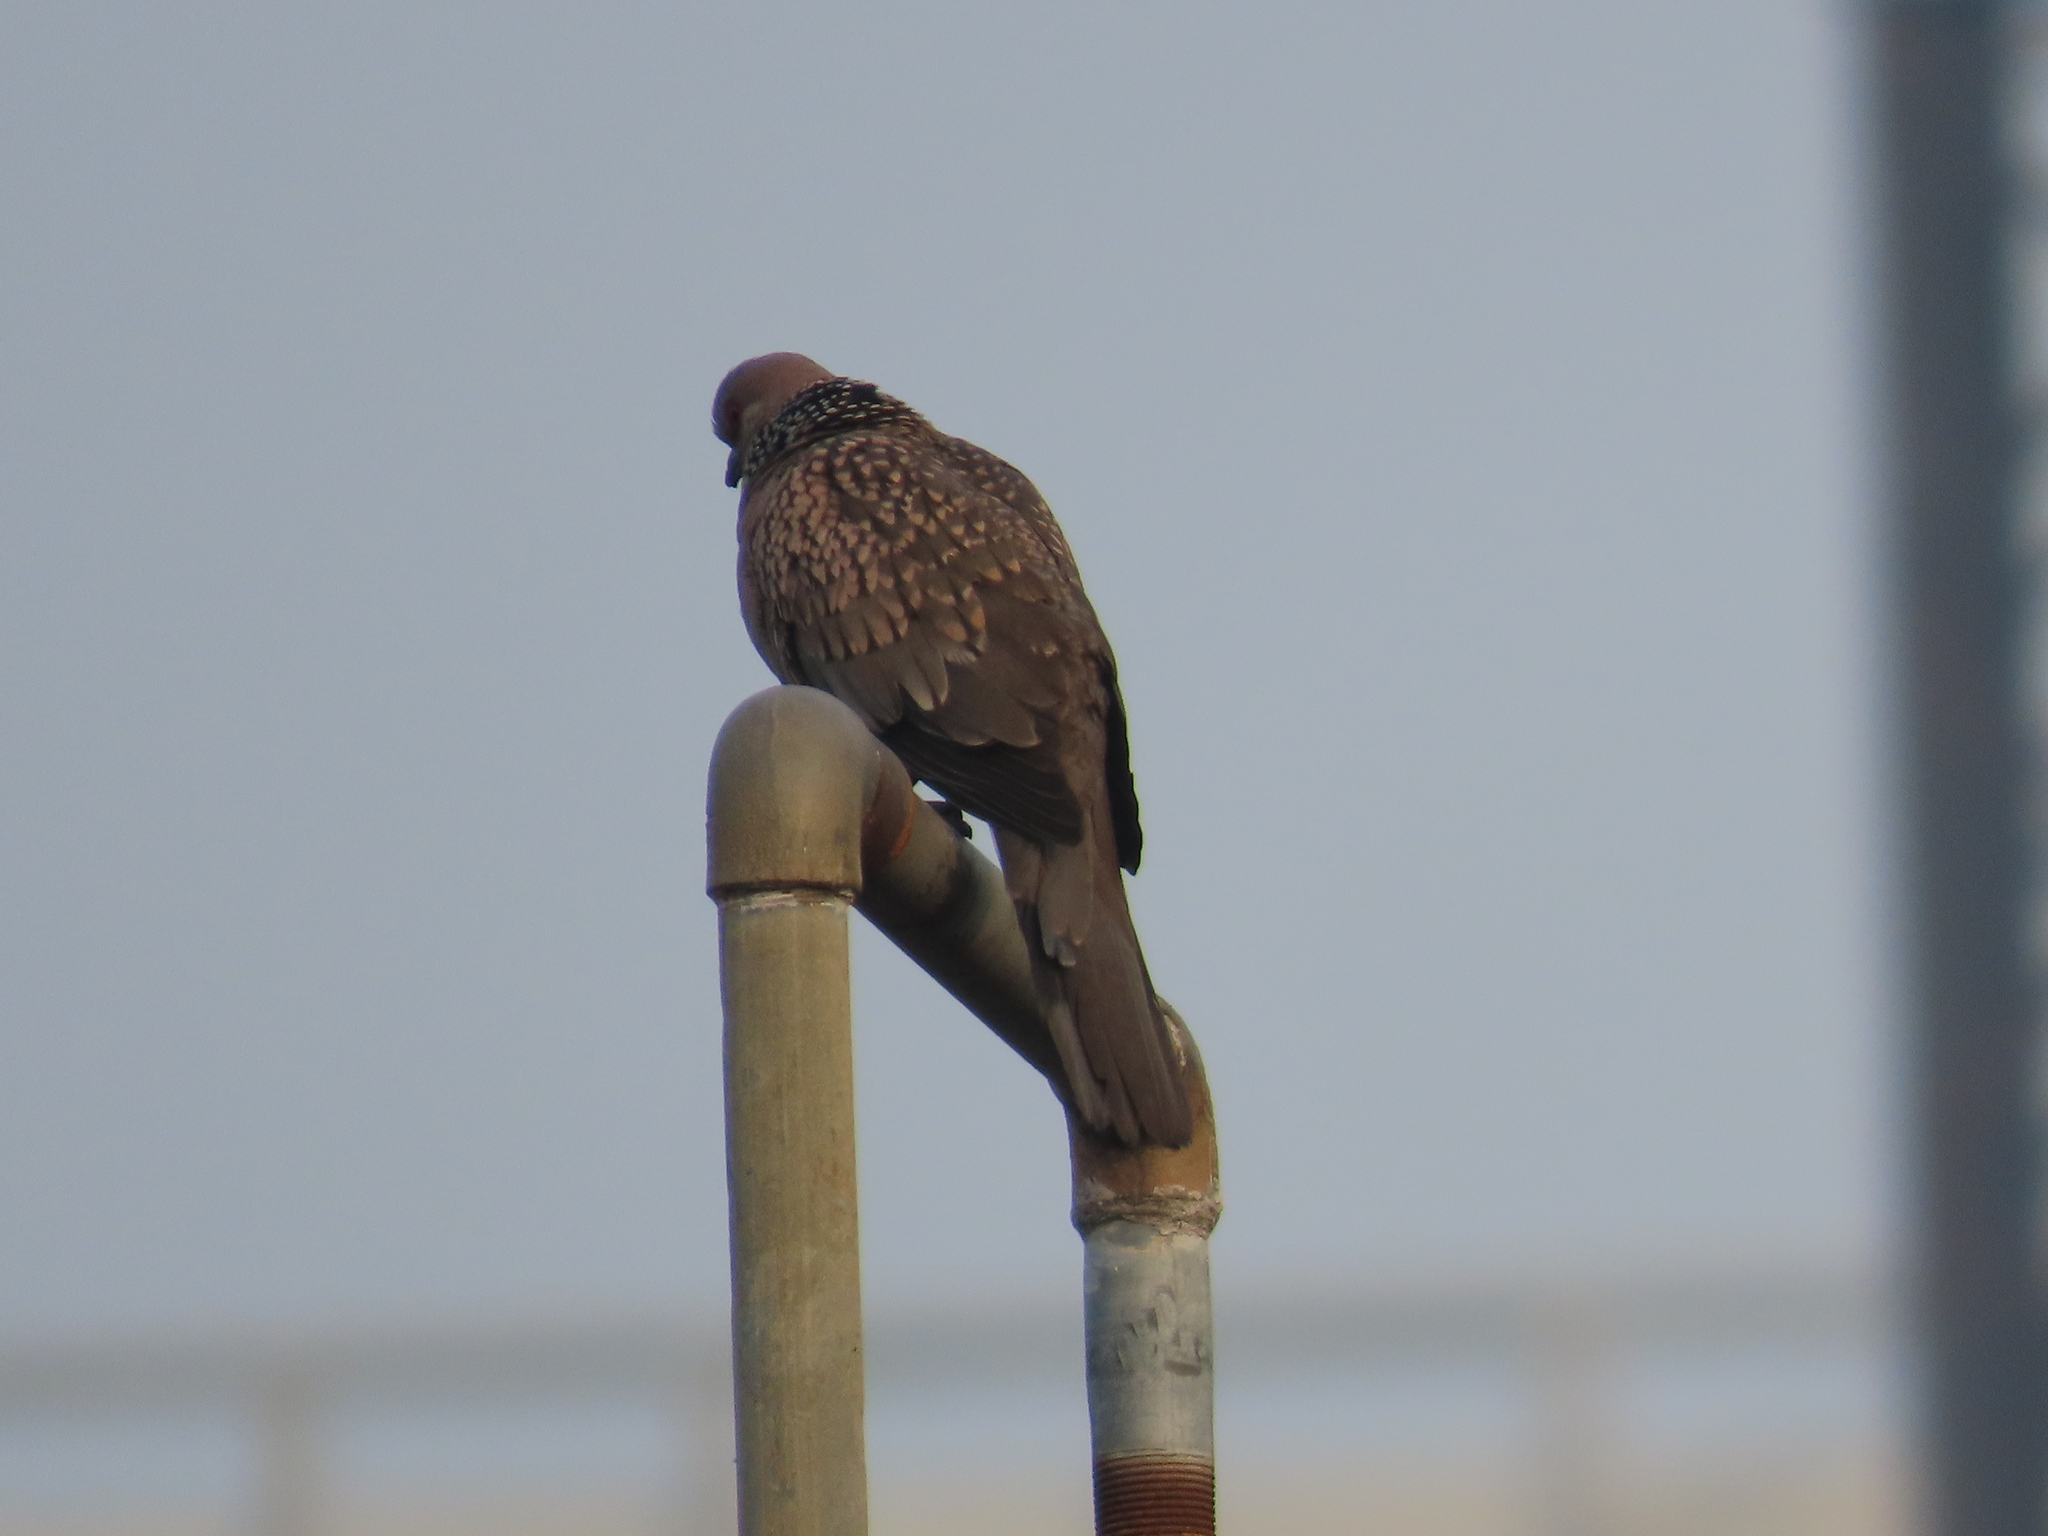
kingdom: Animalia
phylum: Chordata
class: Aves
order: Columbiformes
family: Columbidae
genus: Spilopelia
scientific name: Spilopelia chinensis
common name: Spotted dove
